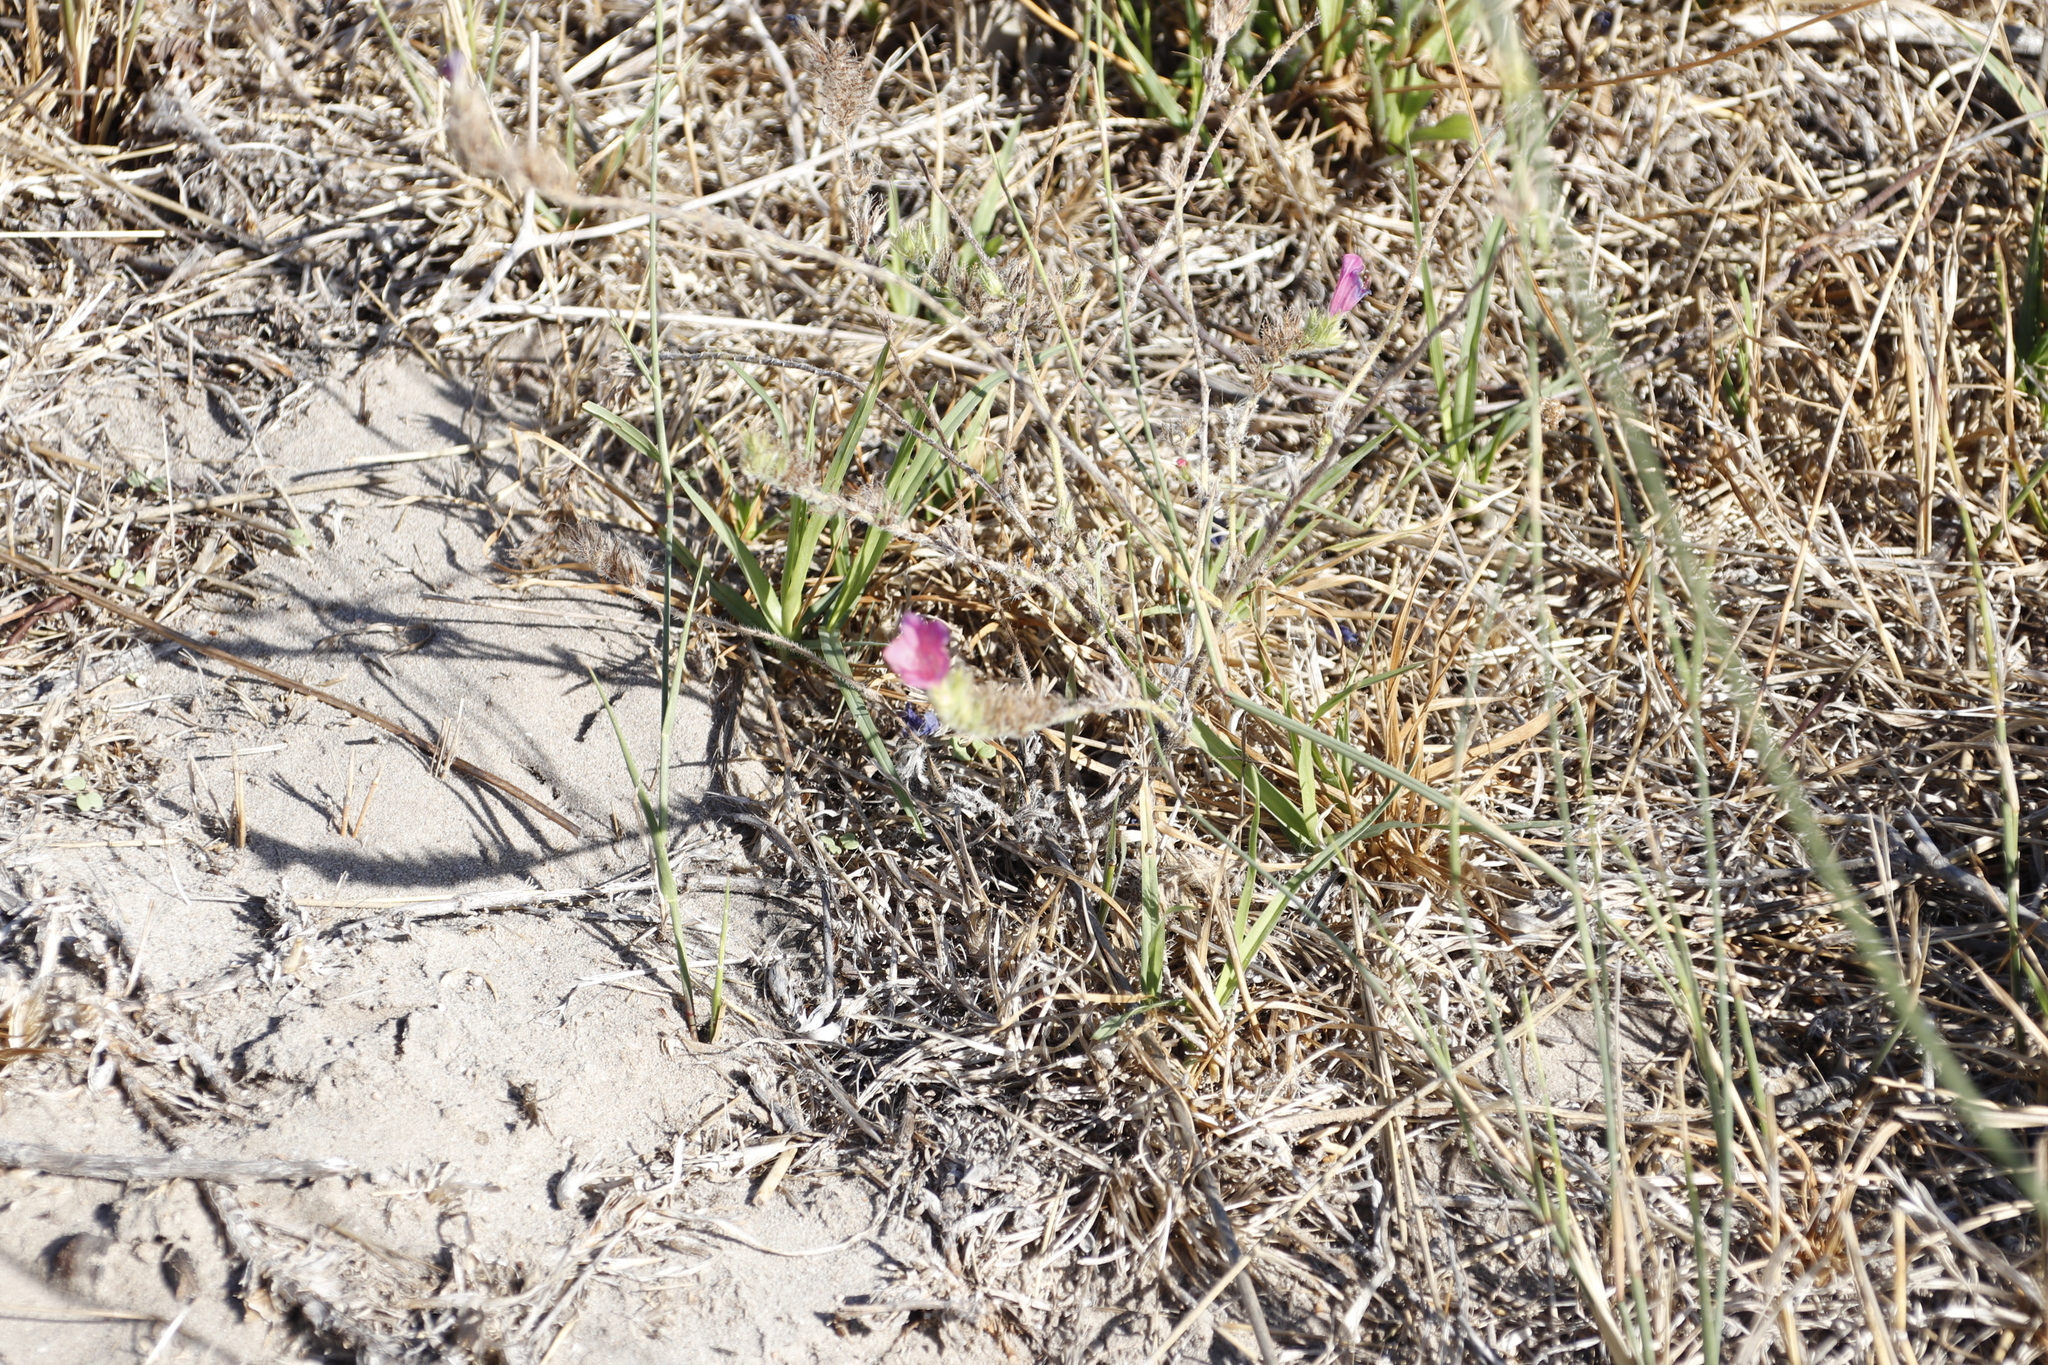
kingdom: Plantae
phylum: Tracheophyta
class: Magnoliopsida
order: Boraginales
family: Boraginaceae
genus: Echium
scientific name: Echium plantagineum
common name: Purple viper's-bugloss
